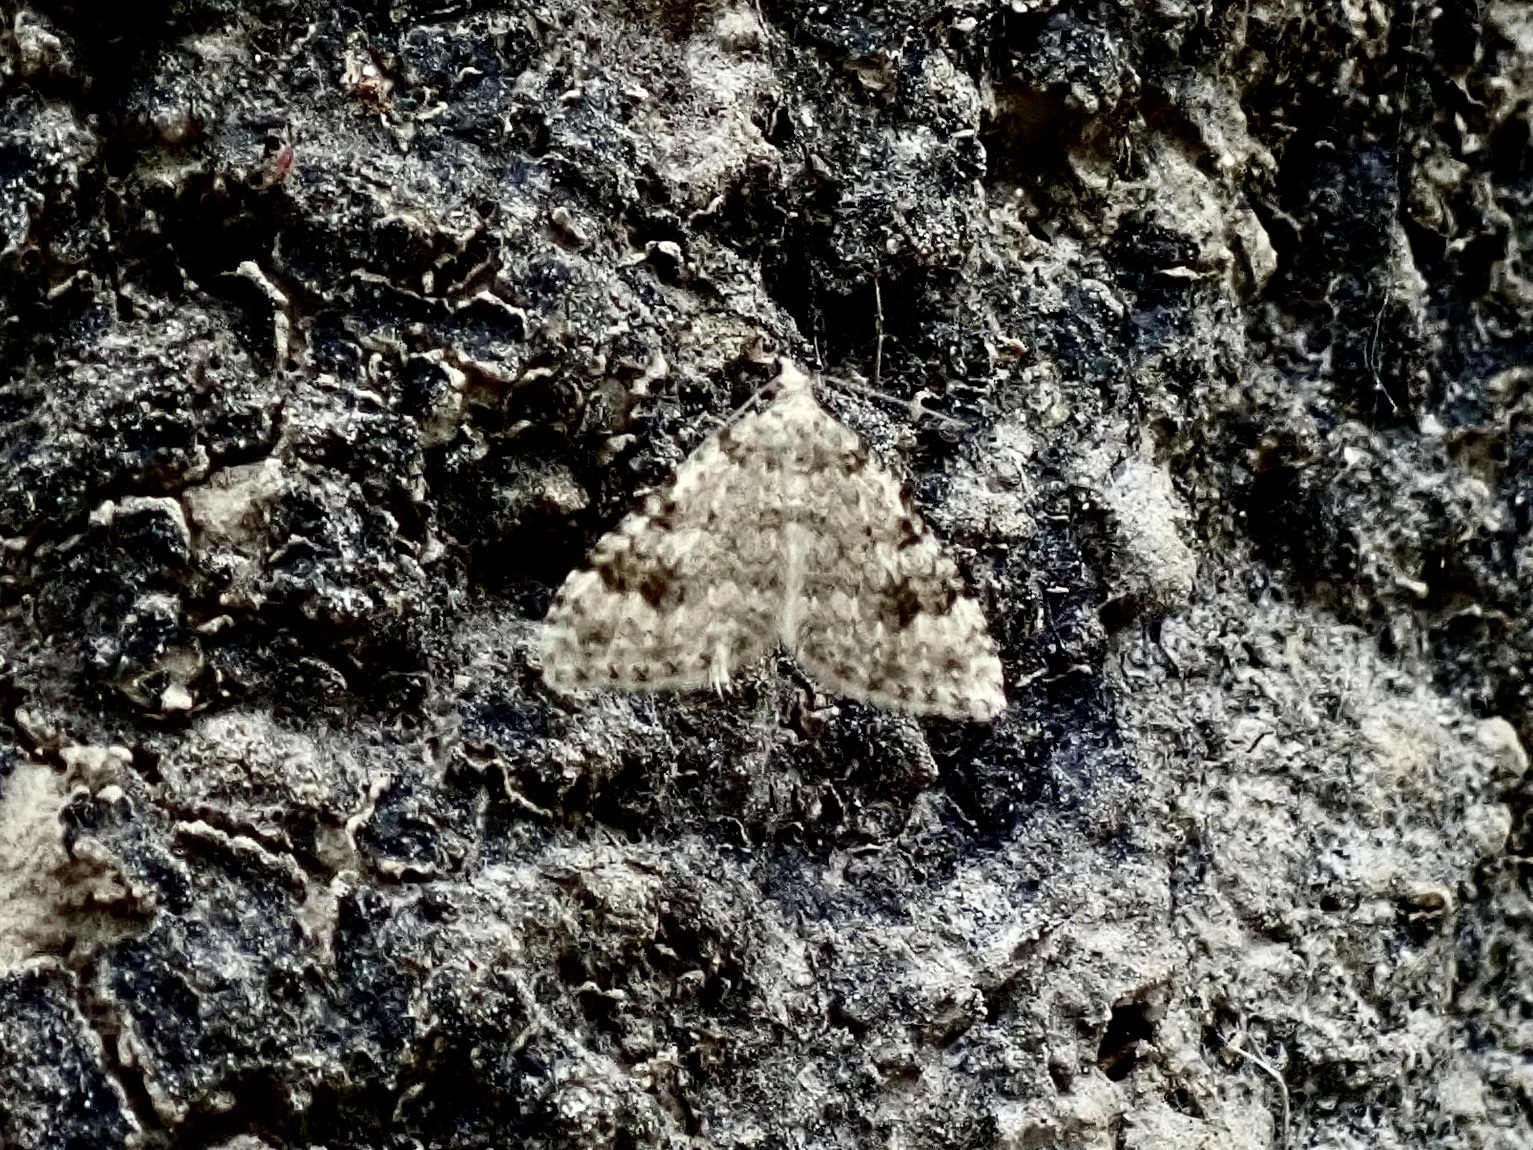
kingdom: Animalia
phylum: Arthropoda
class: Insecta
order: Lepidoptera
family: Geometridae
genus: Helastia
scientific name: Helastia cinerearia
